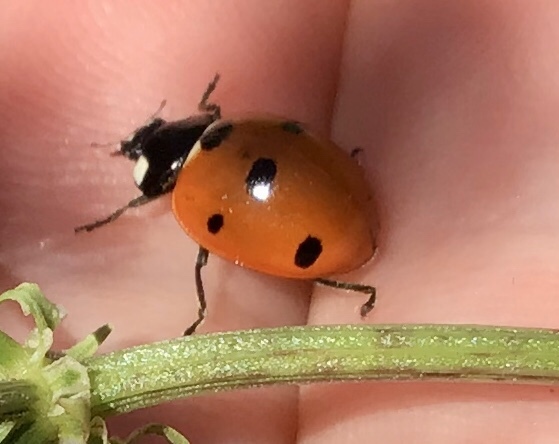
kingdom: Animalia
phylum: Arthropoda
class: Insecta
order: Coleoptera
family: Coccinellidae
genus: Coccinella
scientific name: Coccinella septempunctata
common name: Sevenspotted lady beetle
